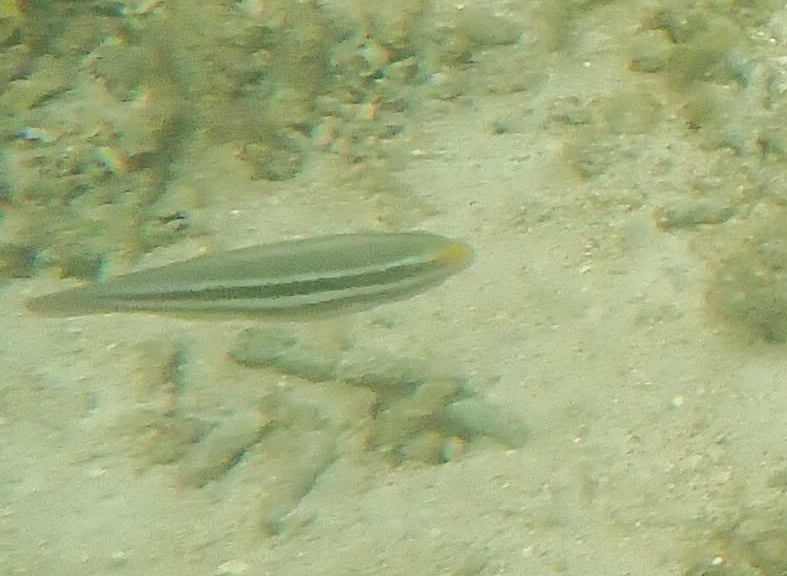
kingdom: Animalia
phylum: Chordata
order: Perciformes
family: Scaridae
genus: Scarus
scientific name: Scarus iseri
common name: Striped parrotfish
